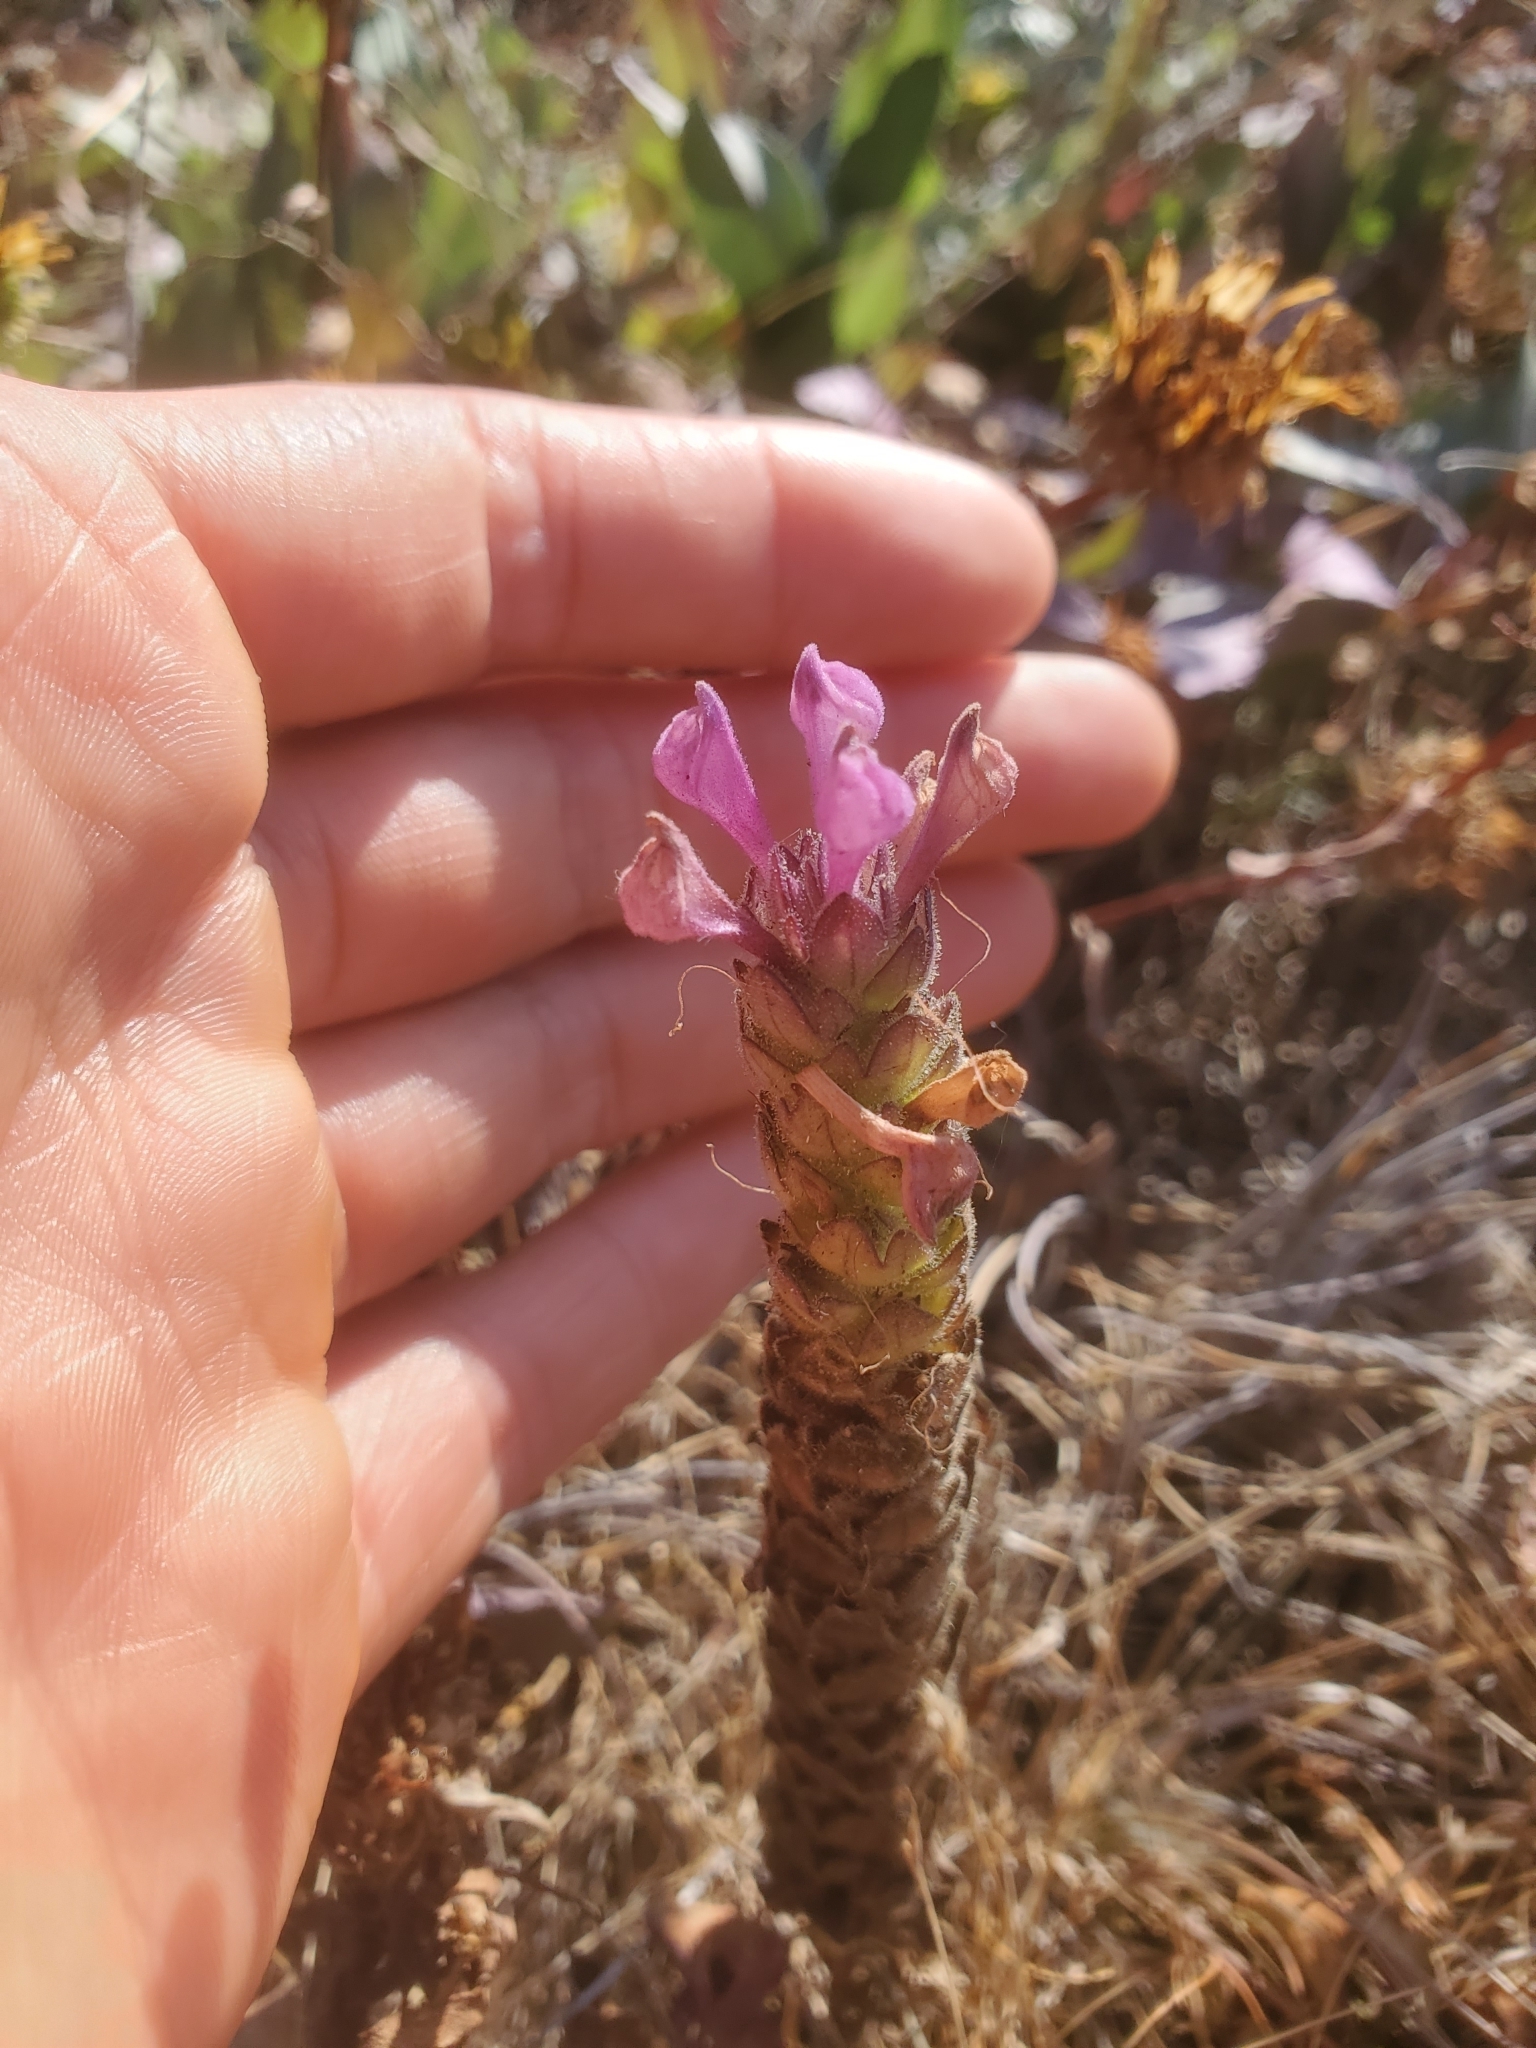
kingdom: Plantae
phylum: Tracheophyta
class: Magnoliopsida
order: Lamiales
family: Orobanchaceae
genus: Orthocarpus
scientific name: Orthocarpus bracteosus
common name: Rosy owl's-clover
